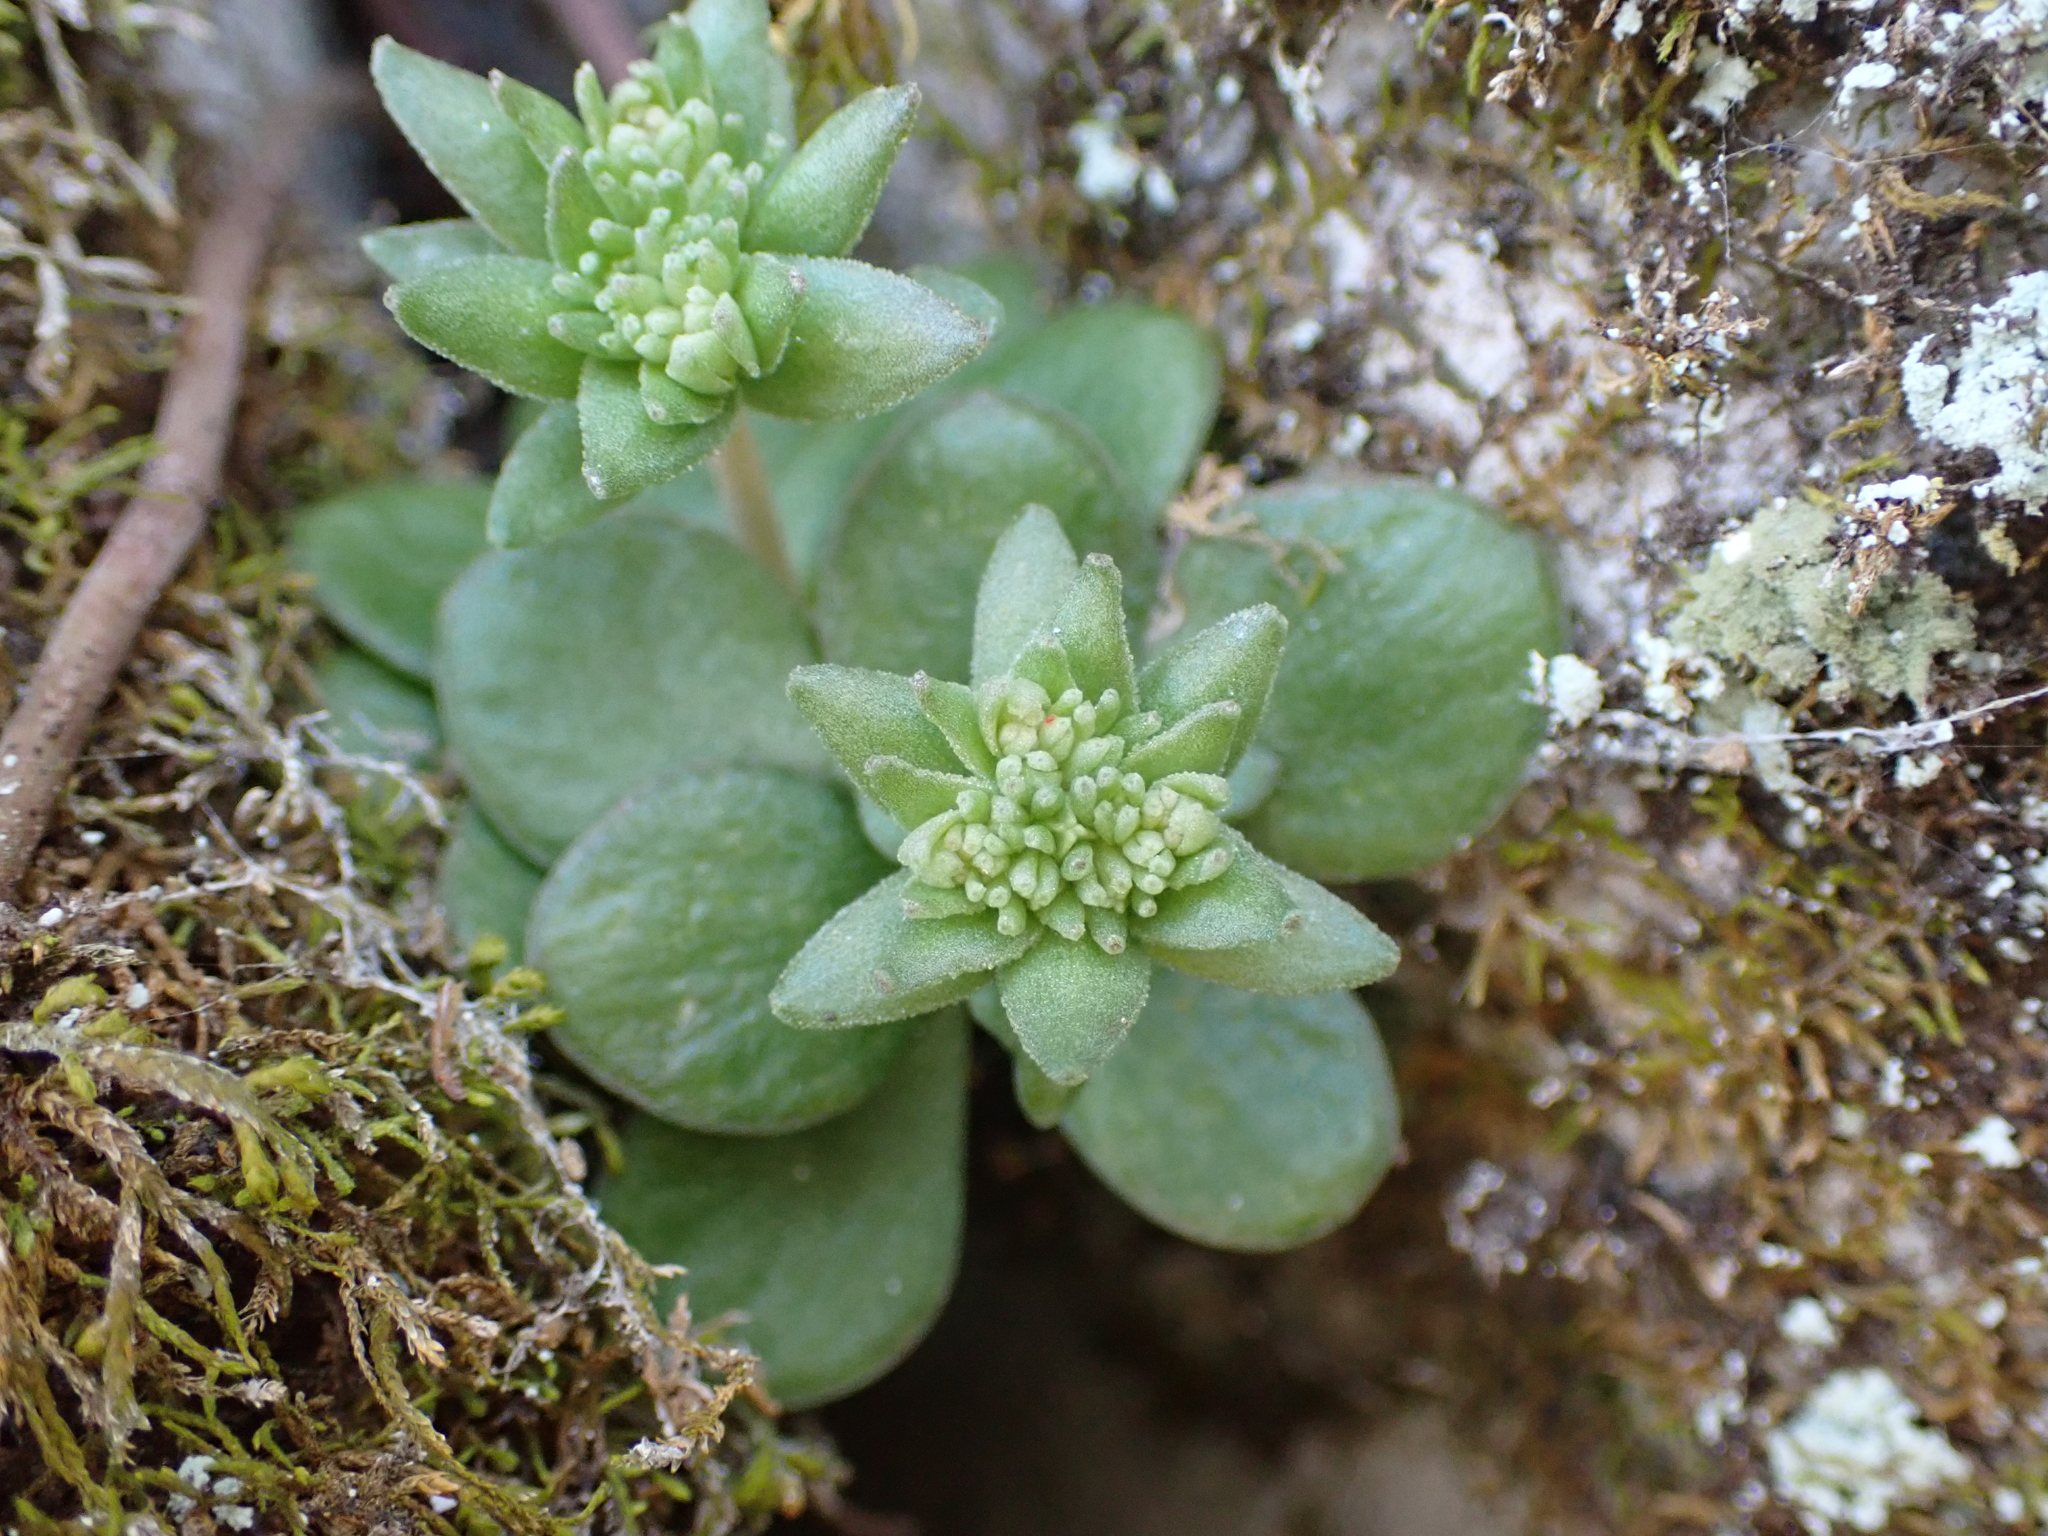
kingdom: Plantae
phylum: Tracheophyta
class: Magnoliopsida
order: Saxifragales
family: Crassulaceae
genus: Sedum
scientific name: Sedum ternatum
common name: Wild stonecrop
